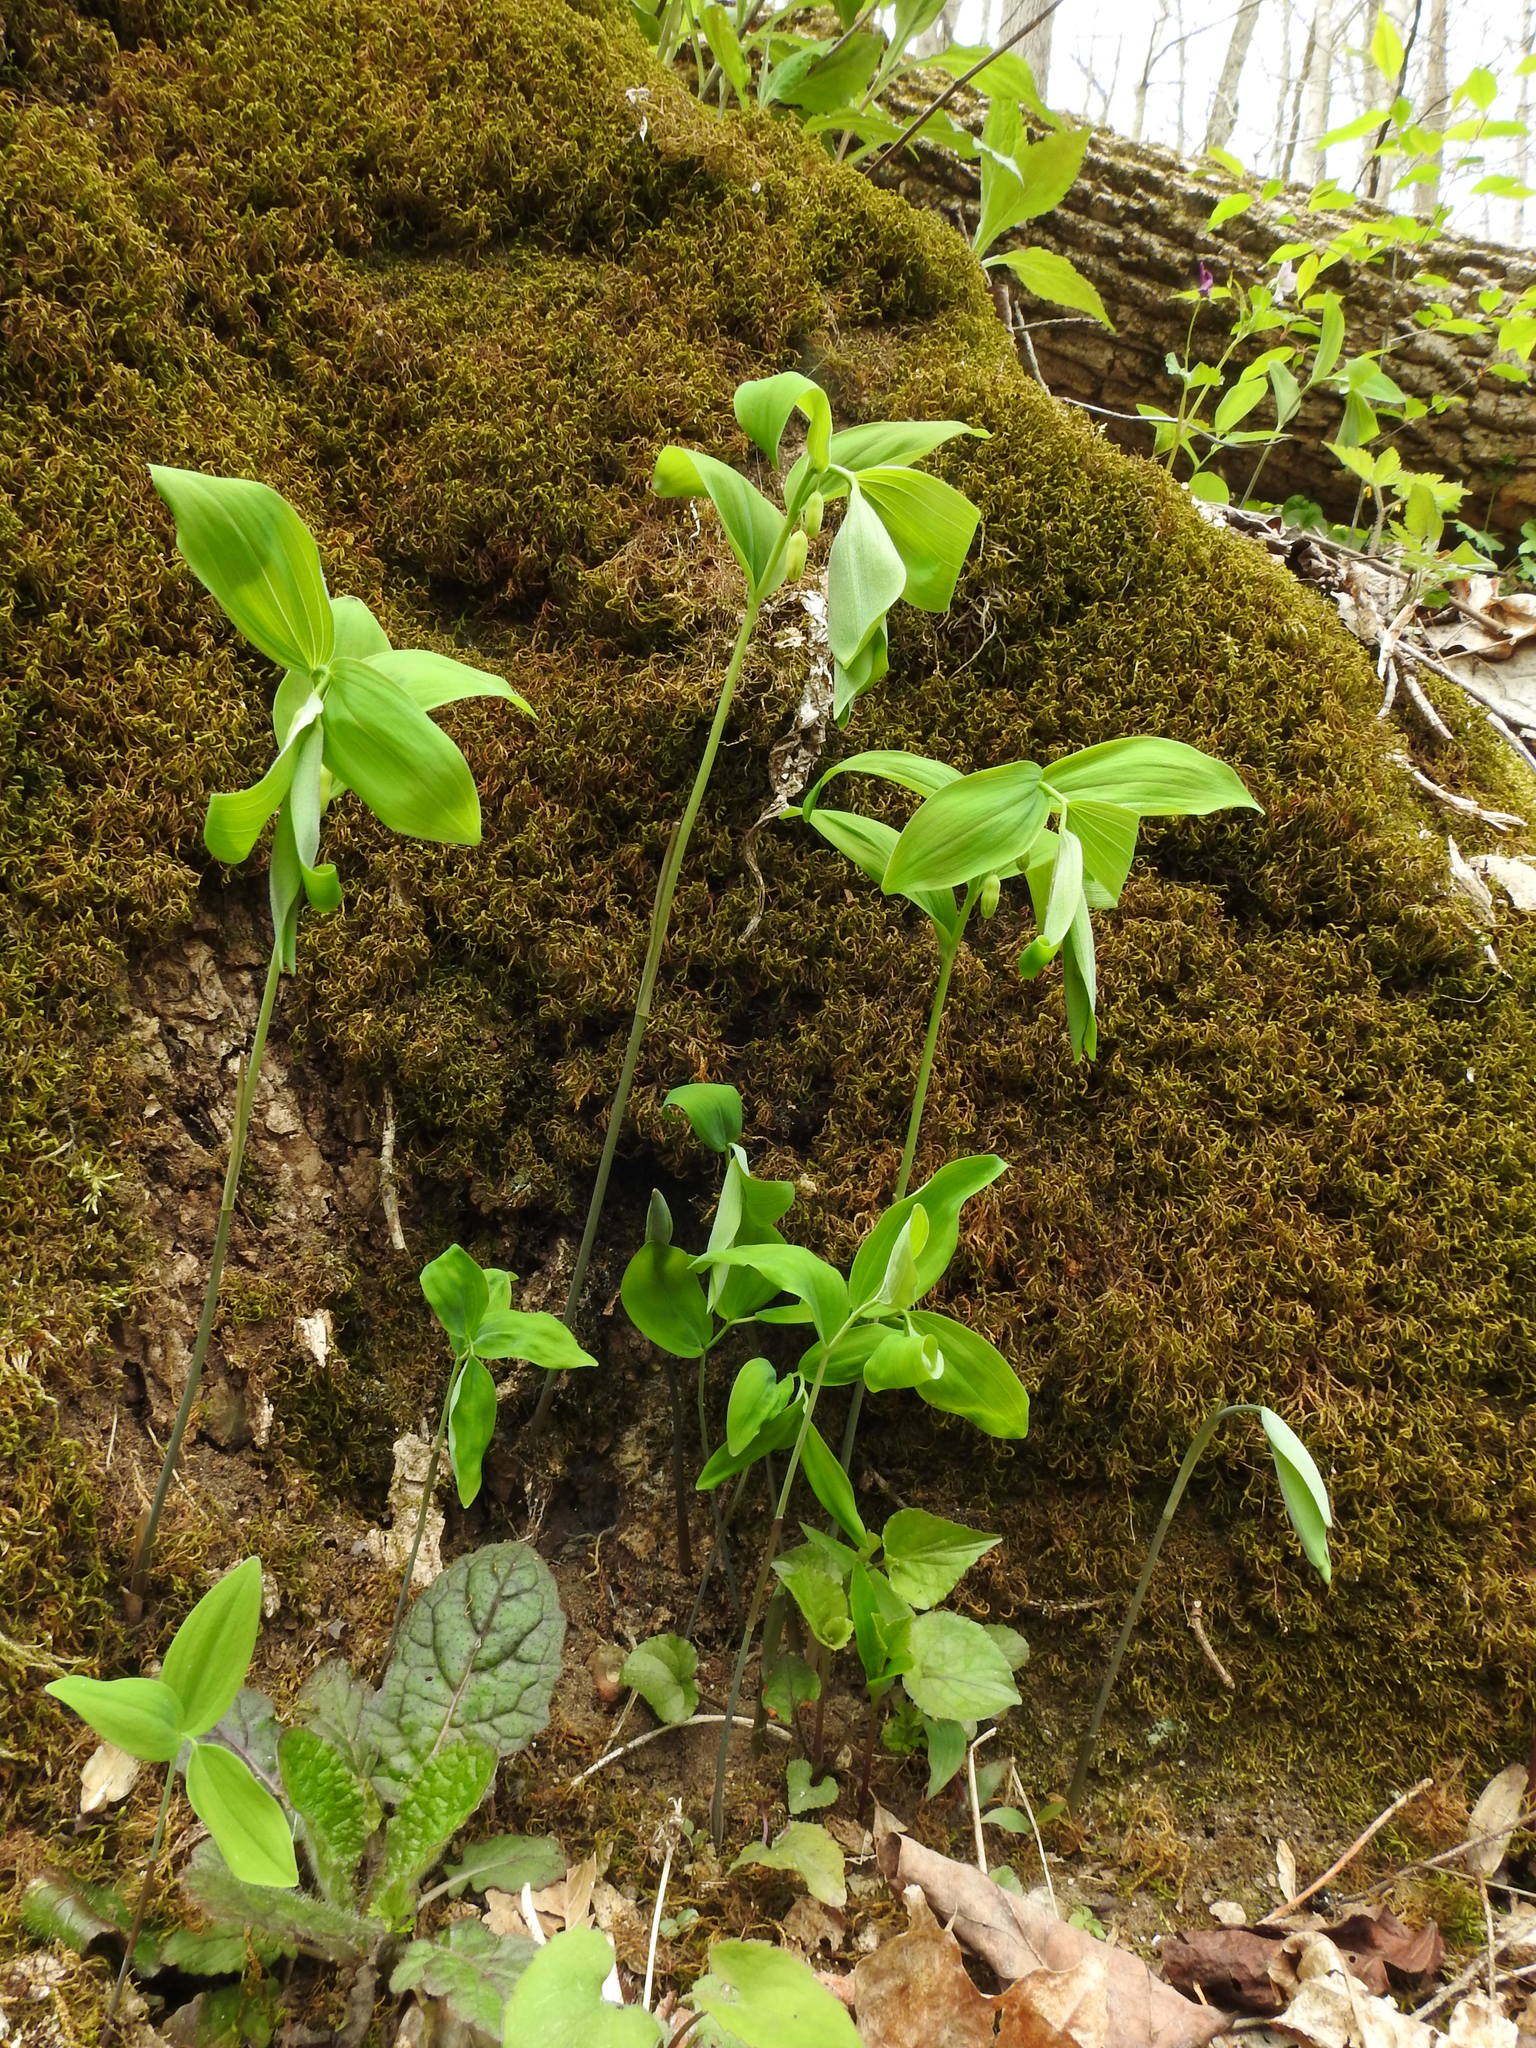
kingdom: Plantae
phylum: Tracheophyta
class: Liliopsida
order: Asparagales
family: Asparagaceae
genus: Polygonatum
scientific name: Polygonatum pubescens
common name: Downy solomon's seal
